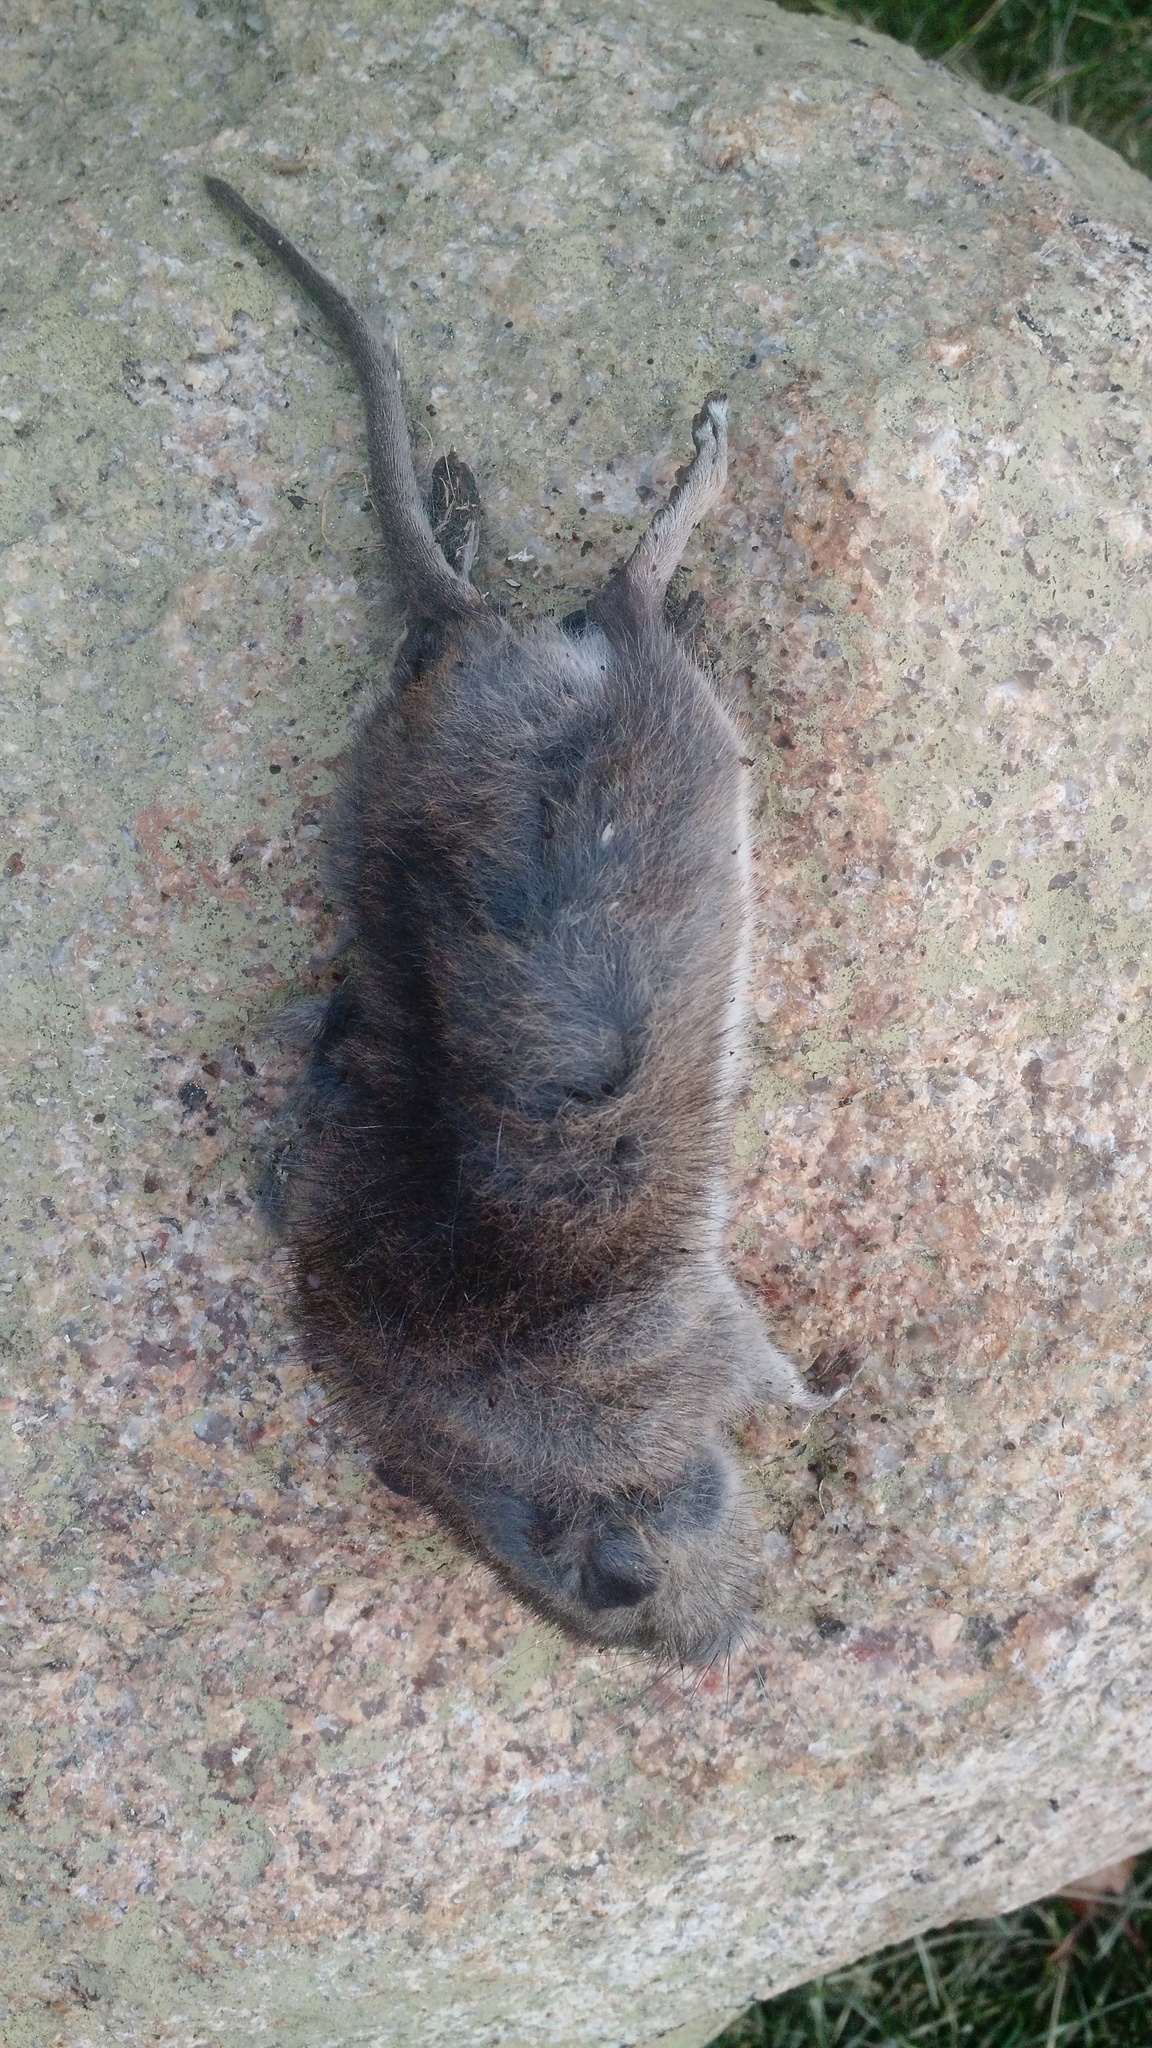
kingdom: Animalia
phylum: Chordata
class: Mammalia
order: Rodentia
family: Cricetidae
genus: Microtus
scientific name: Microtus pennsylvanicus
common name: Meadow vole
